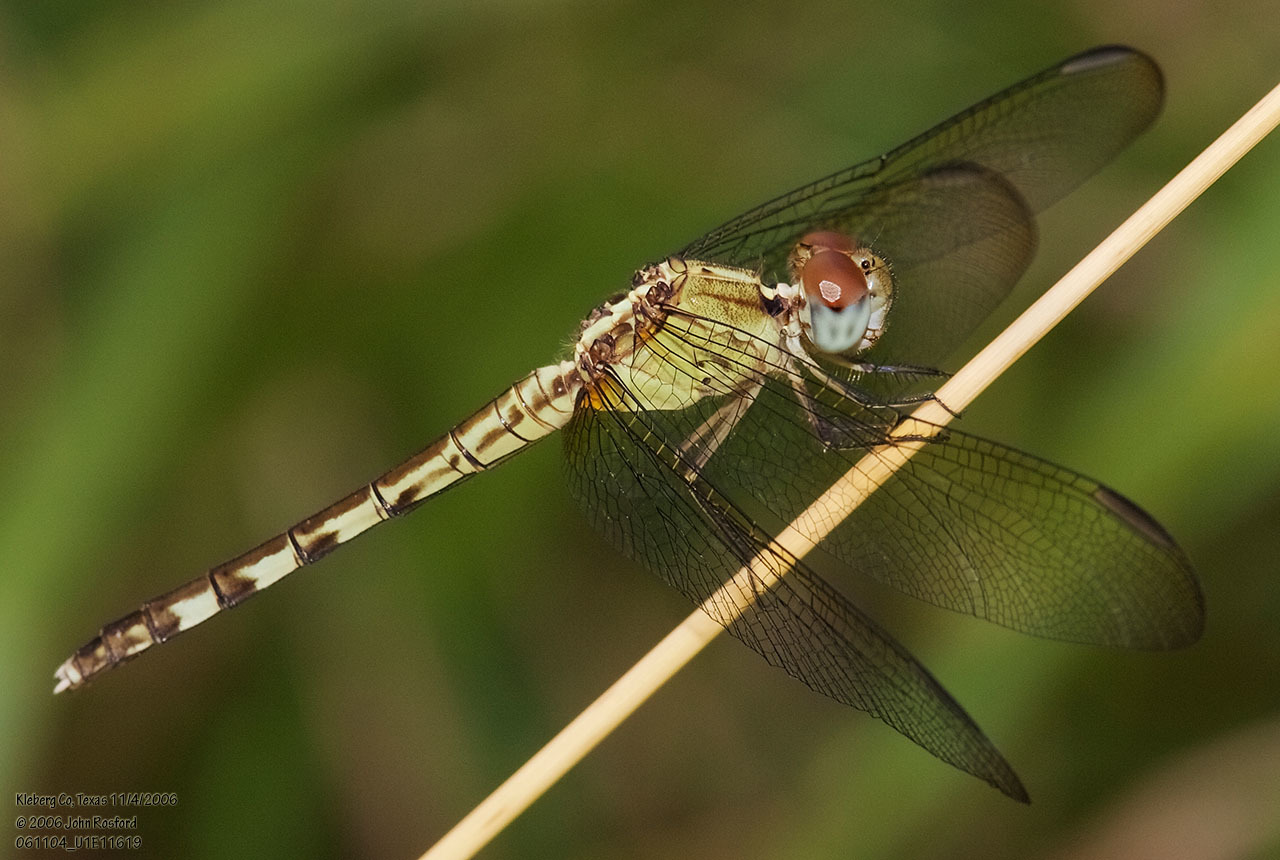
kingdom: Animalia
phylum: Arthropoda
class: Insecta
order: Odonata
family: Libellulidae
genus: Erythrodiplax
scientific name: Erythrodiplax umbrata
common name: Band-winged dragonlet
